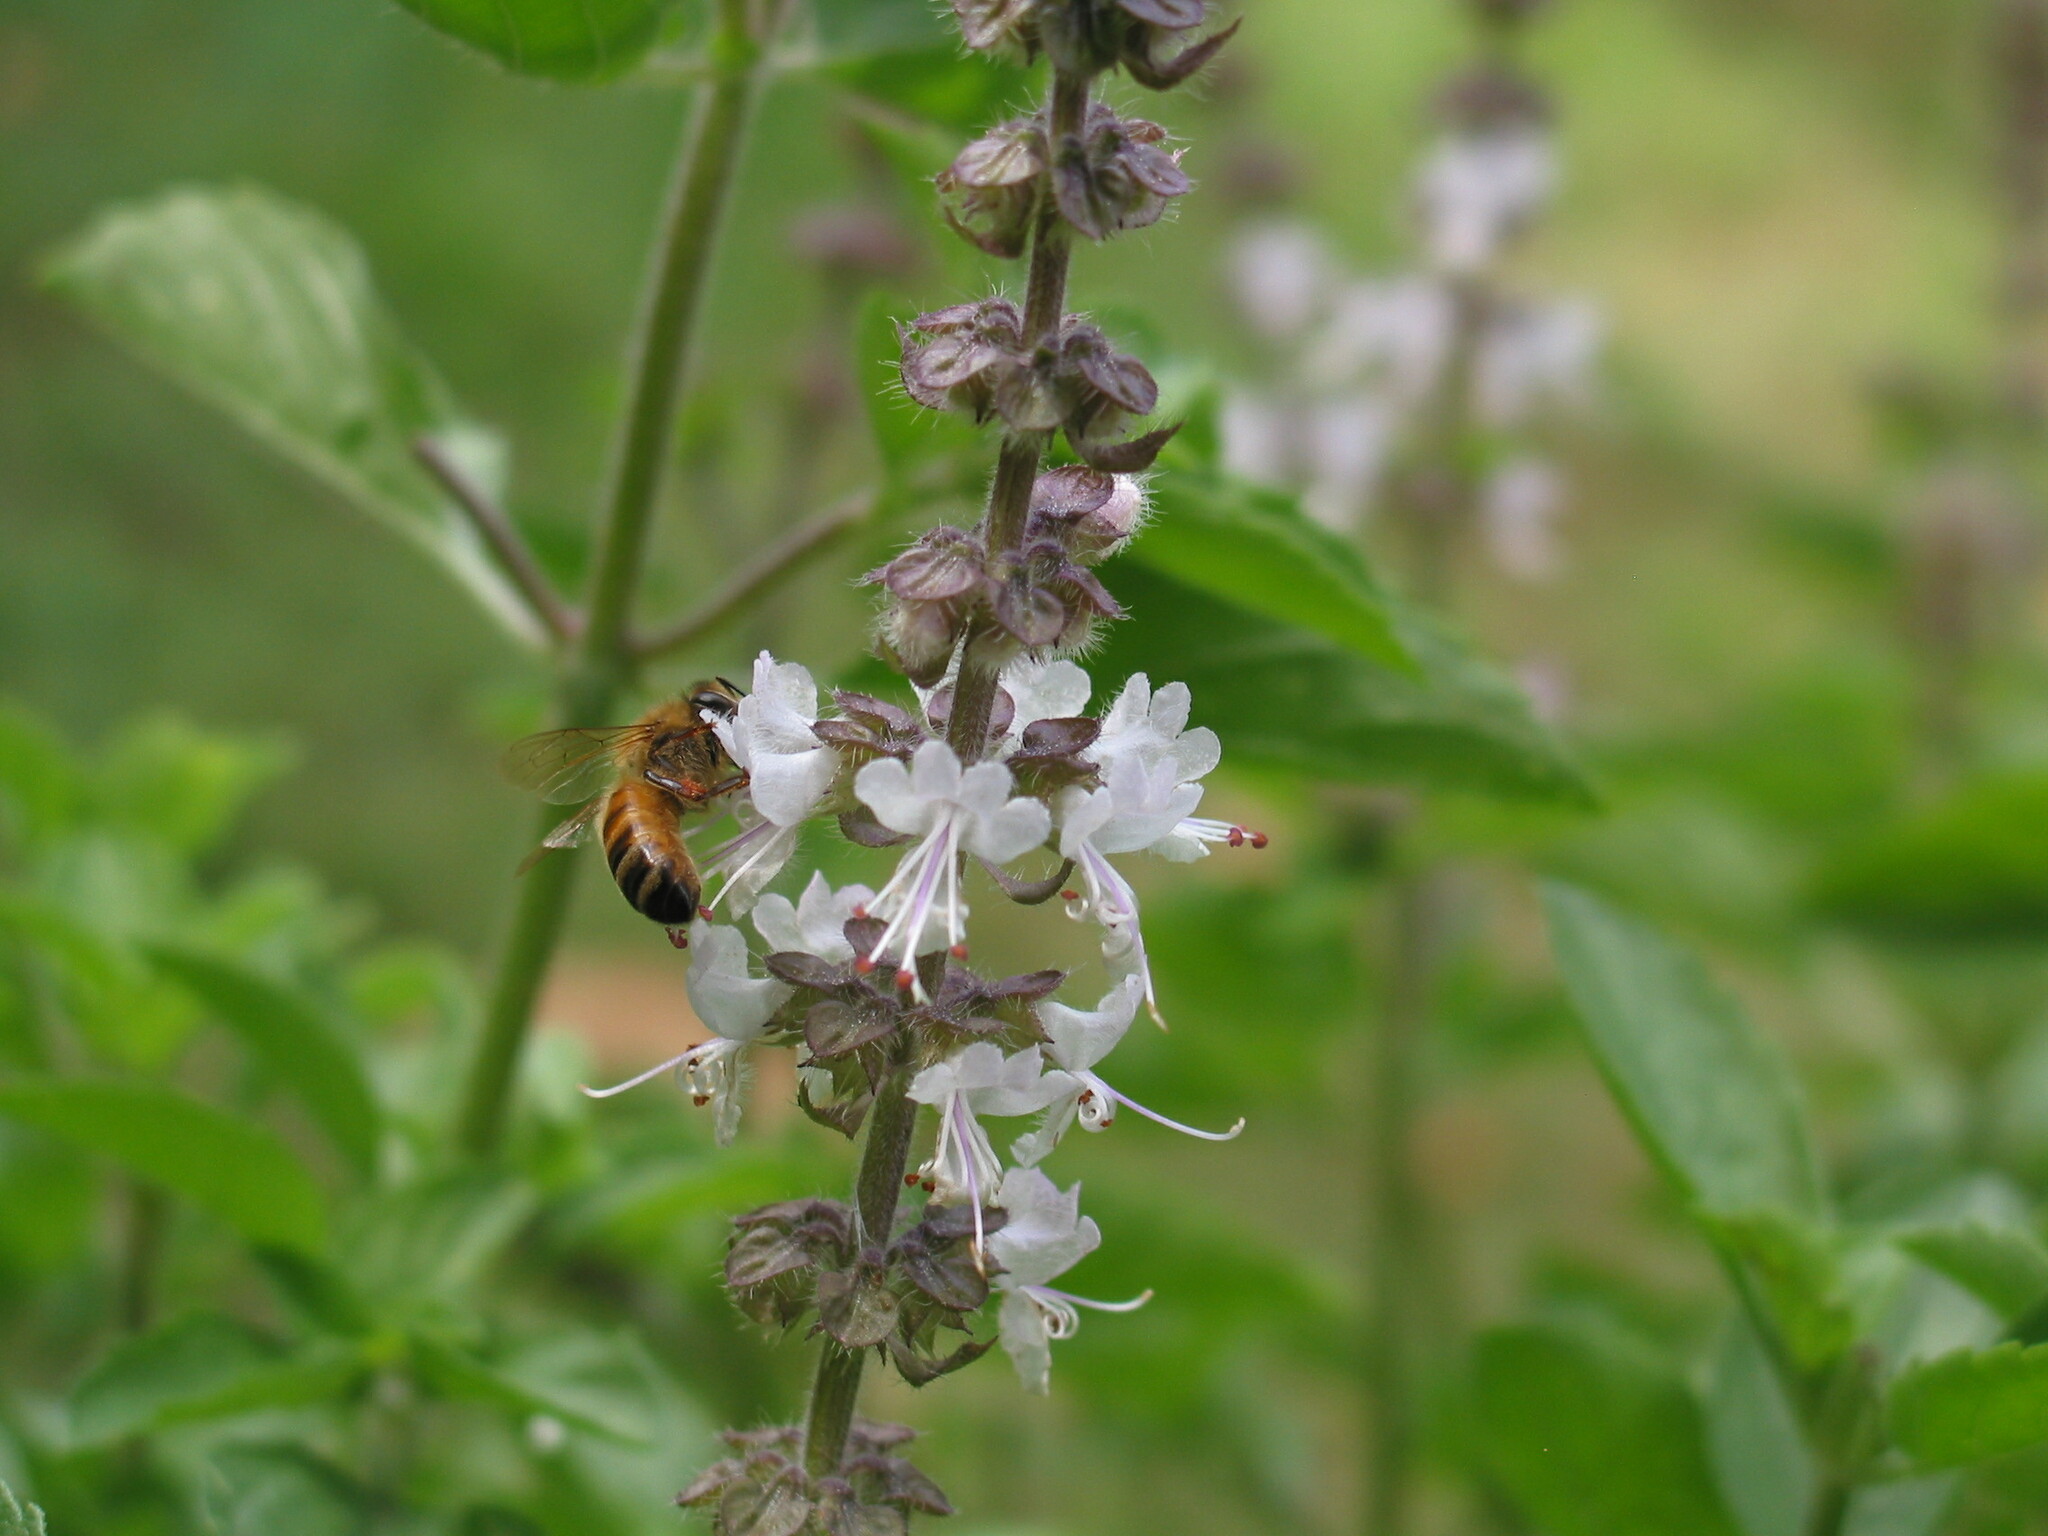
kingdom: Animalia
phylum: Arthropoda
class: Insecta
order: Hymenoptera
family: Apidae
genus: Apis
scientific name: Apis mellifera
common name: Honey bee
